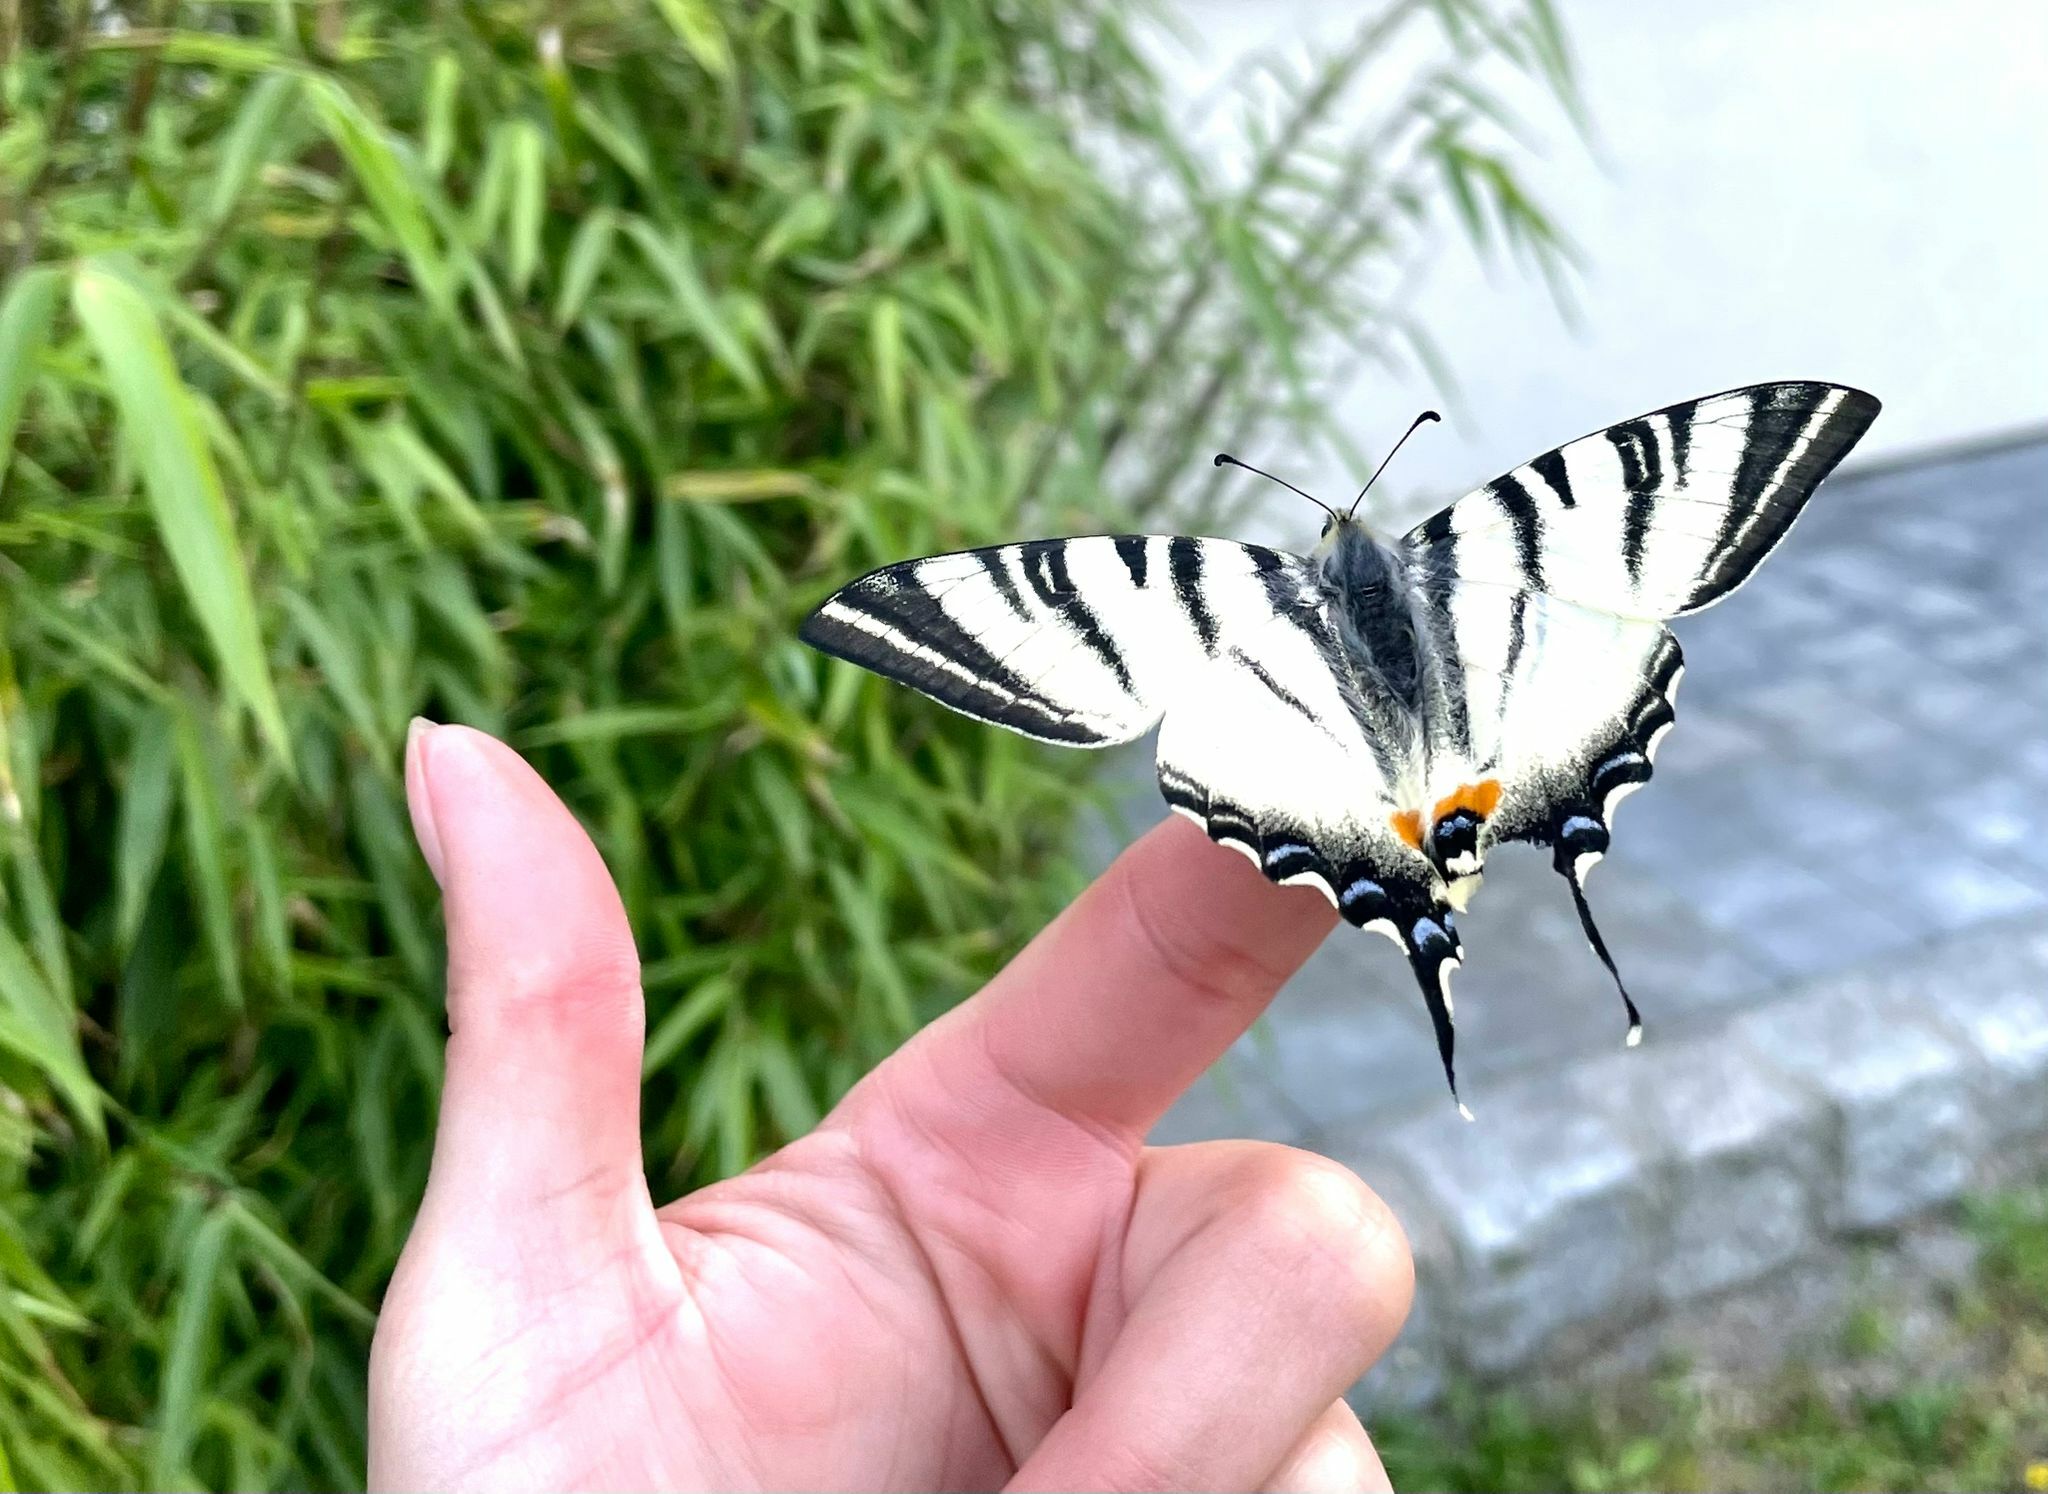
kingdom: Animalia
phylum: Arthropoda
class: Insecta
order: Lepidoptera
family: Papilionidae
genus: Iphiclides
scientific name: Iphiclides podalirius
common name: Scarce swallowtail
